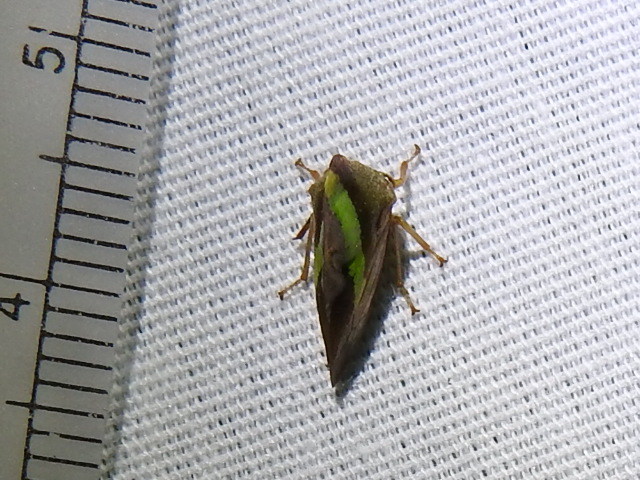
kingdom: Animalia
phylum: Arthropoda
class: Insecta
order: Hemiptera
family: Membracidae
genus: Smilia
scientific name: Smilia camelus
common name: Camel treehopper
